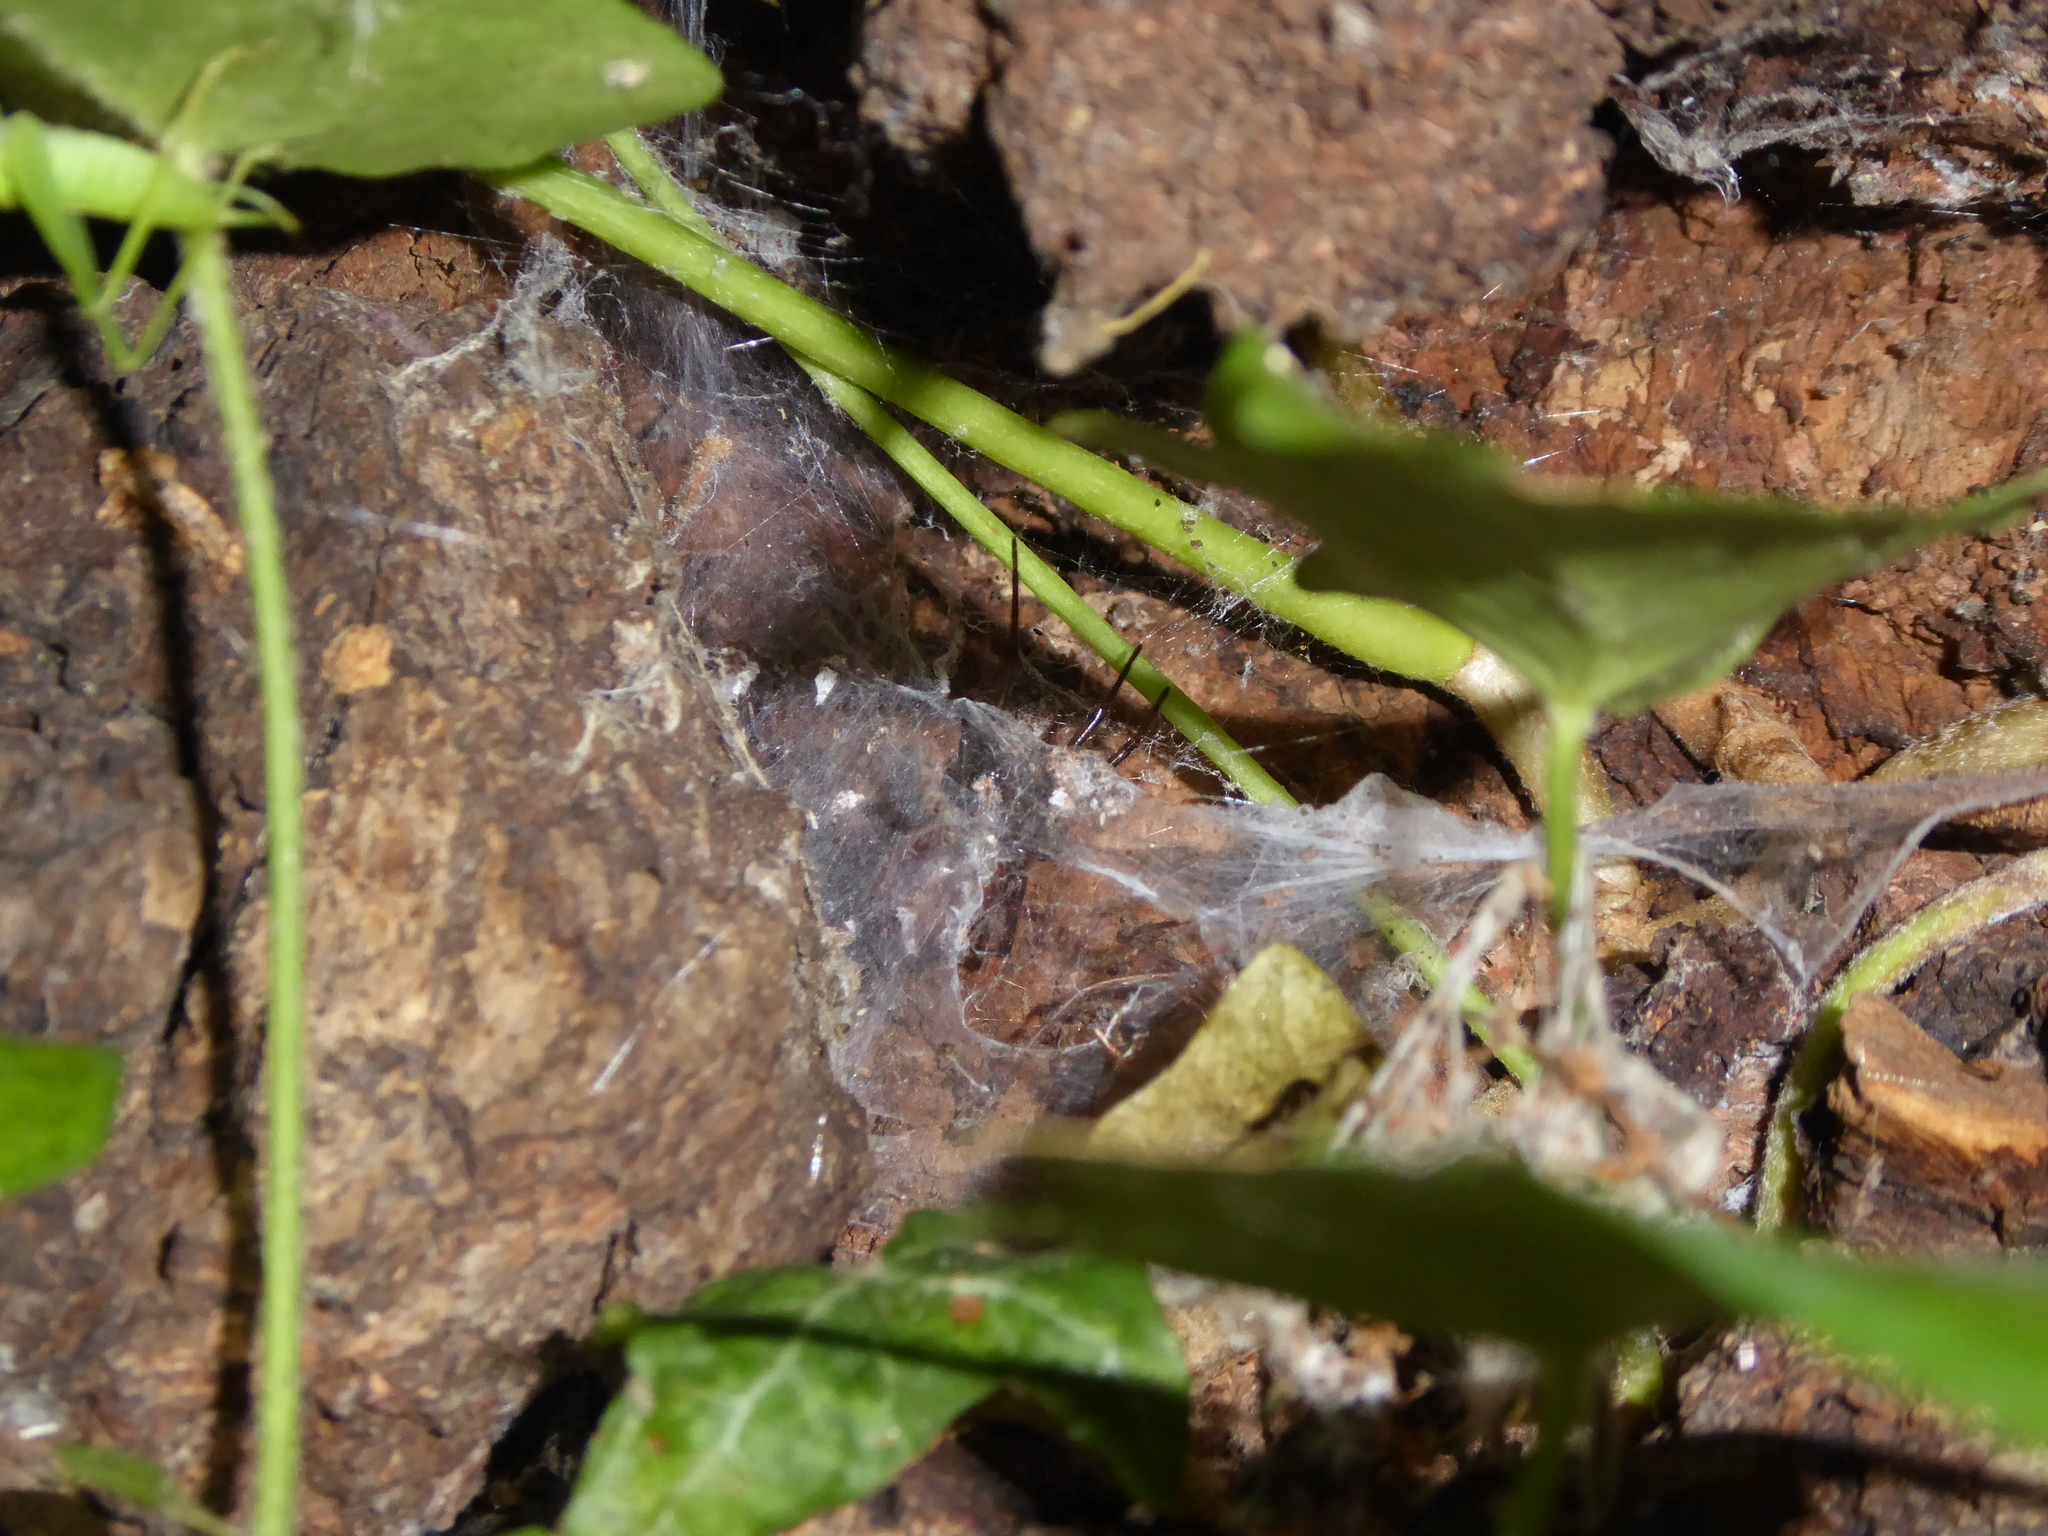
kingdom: Animalia
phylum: Arthropoda
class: Arachnida
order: Araneae
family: Theridiidae
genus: Steatoda
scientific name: Steatoda
